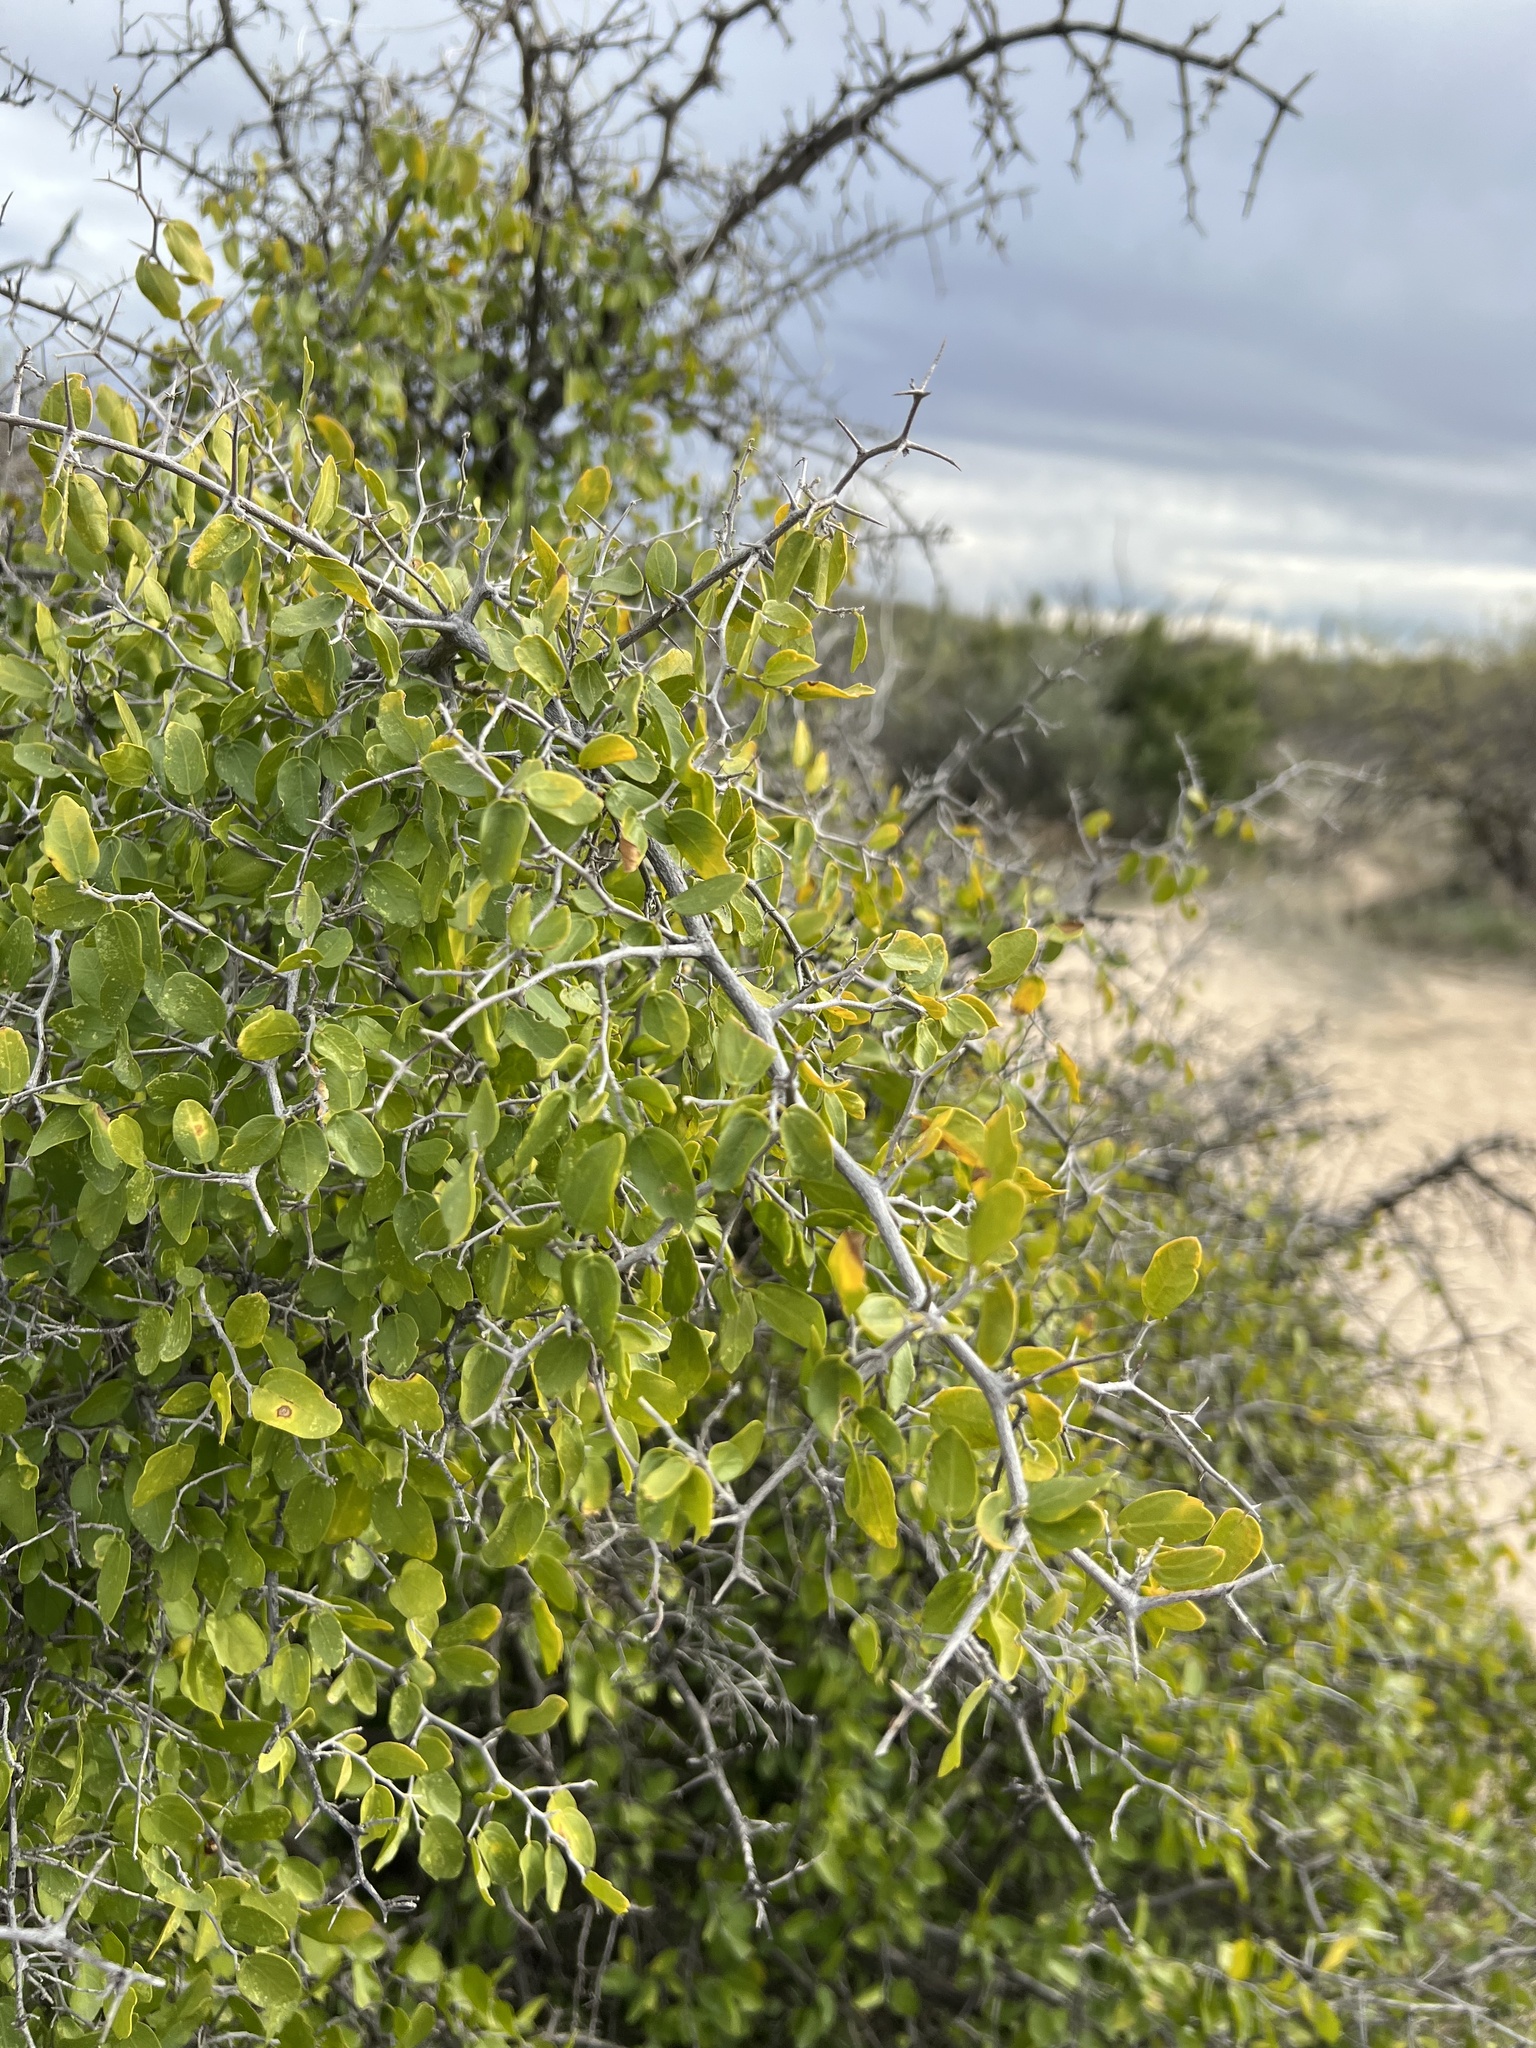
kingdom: Plantae
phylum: Tracheophyta
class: Magnoliopsida
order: Rosales
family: Cannabaceae
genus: Celtis
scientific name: Celtis pallida
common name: Desert hackberry
